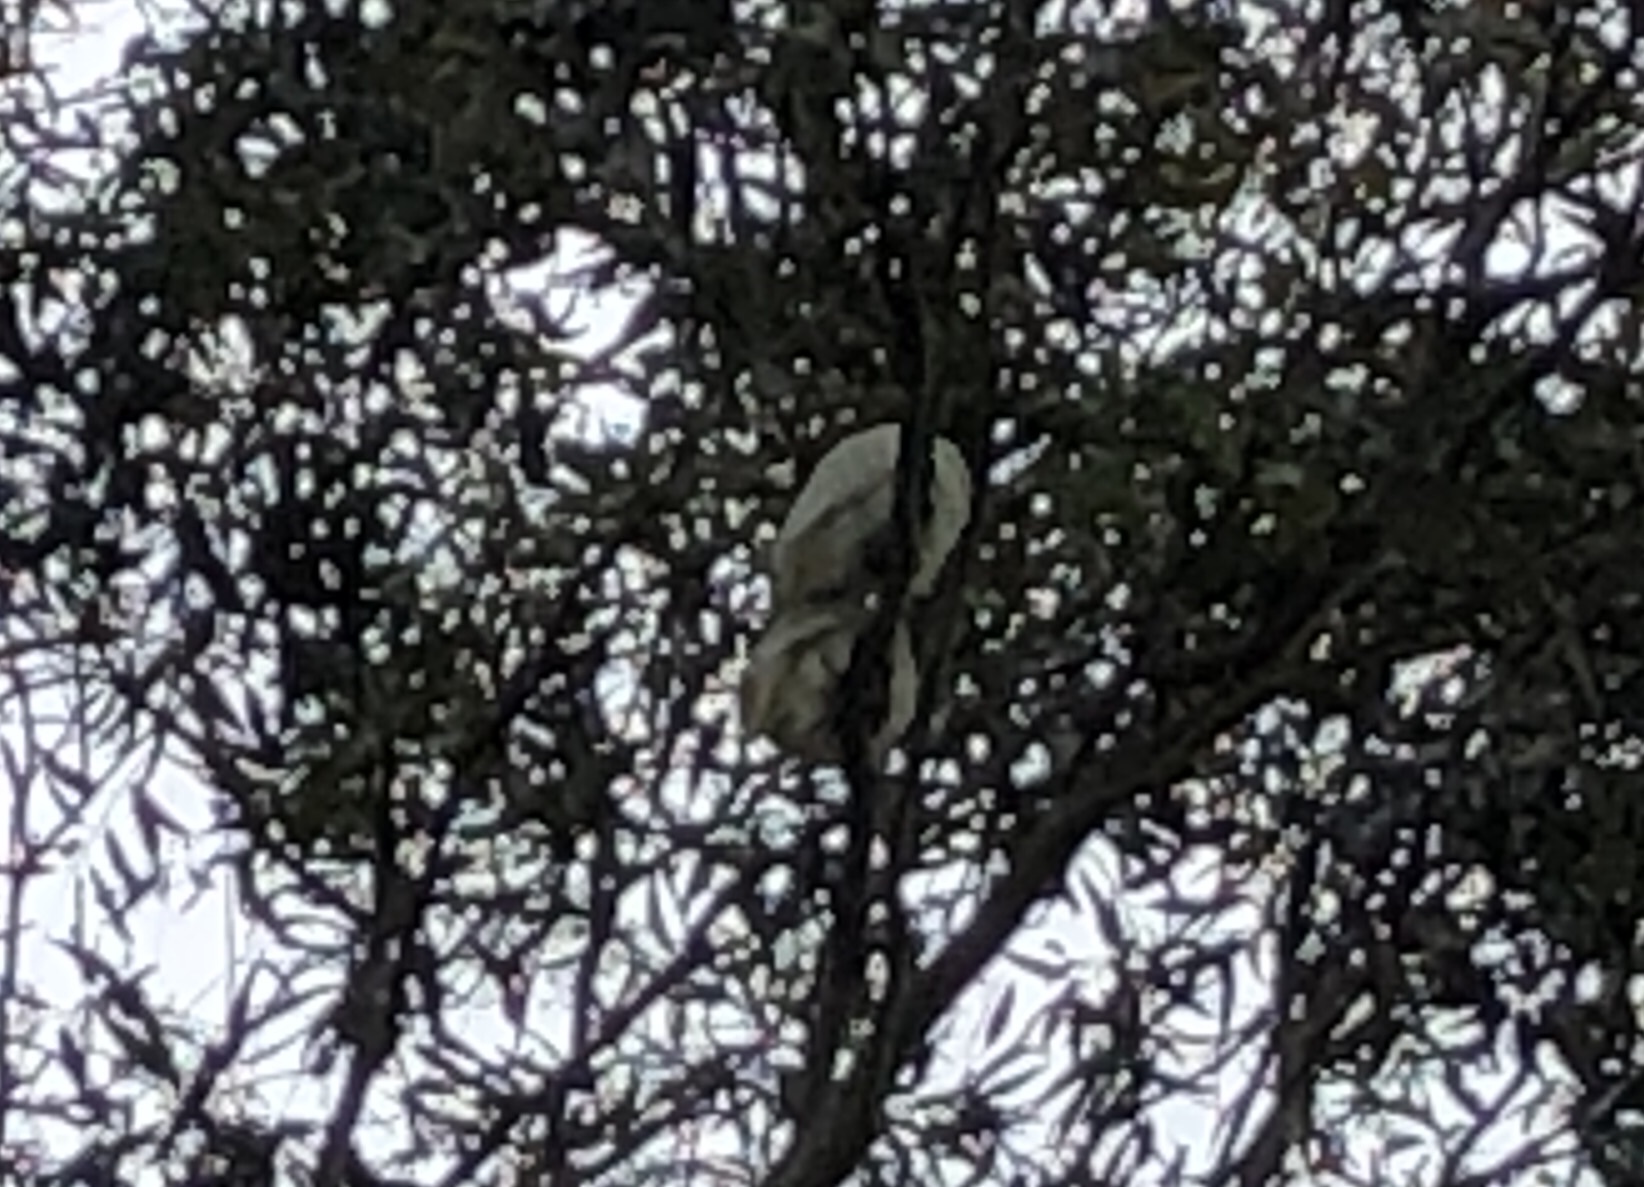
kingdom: Animalia
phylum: Chordata
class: Aves
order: Psittaciformes
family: Psittacidae
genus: Cacatua
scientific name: Cacatua sanguinea
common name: Little corella
